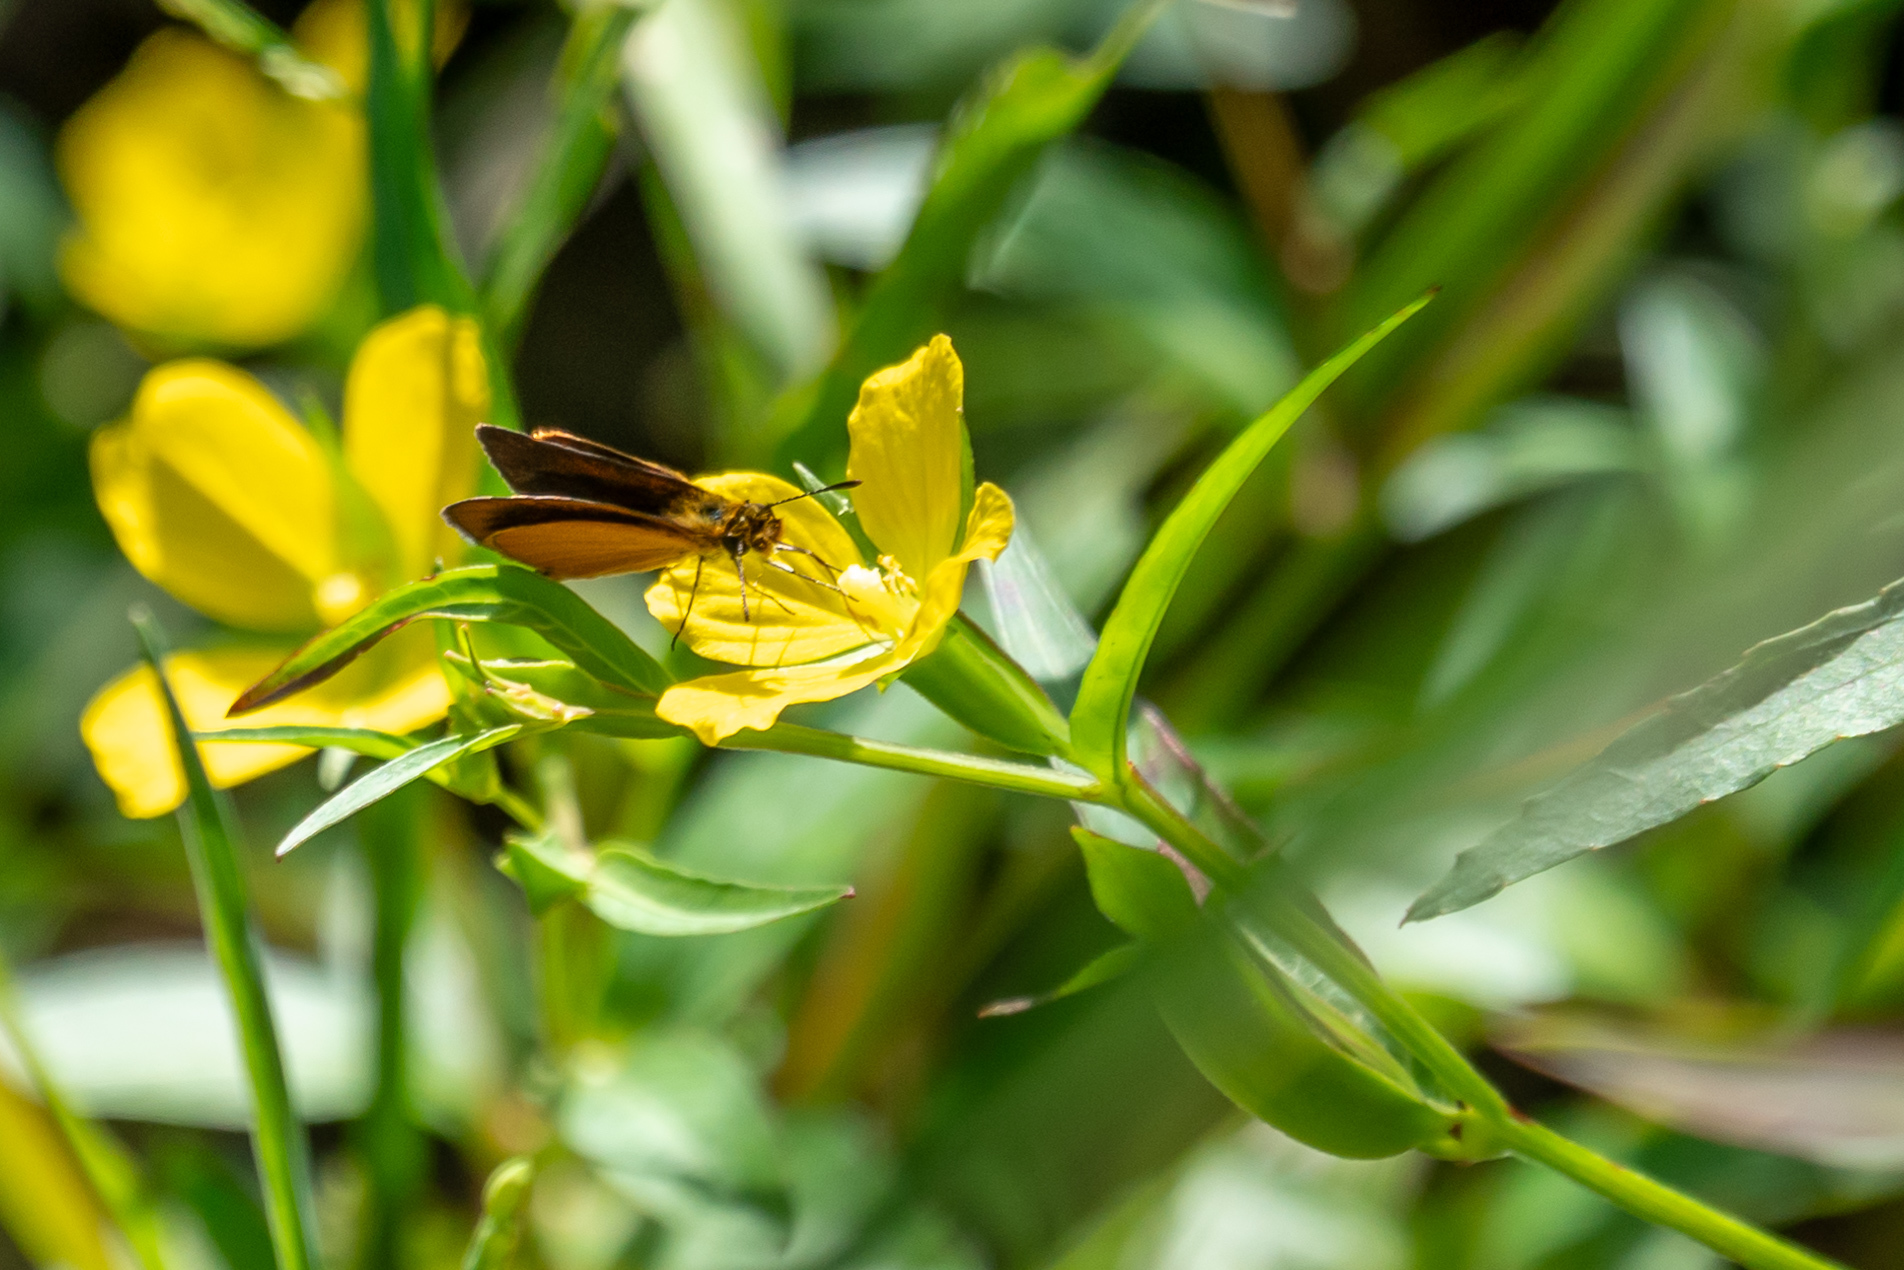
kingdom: Animalia
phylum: Arthropoda
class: Insecta
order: Lepidoptera
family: Hesperiidae
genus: Ancyloxypha
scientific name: Ancyloxypha numitor
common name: Least skipper
